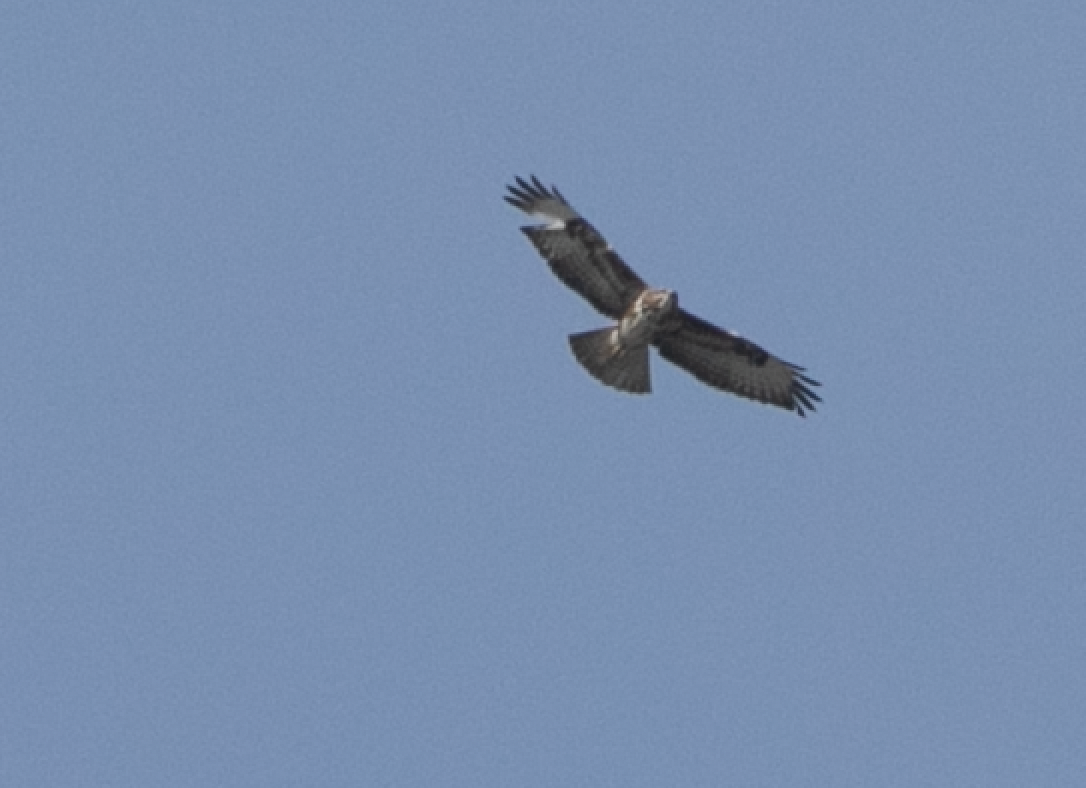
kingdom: Animalia
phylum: Chordata
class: Aves
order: Accipitriformes
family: Accipitridae
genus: Buteo
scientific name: Buteo buteo
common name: Common buzzard
